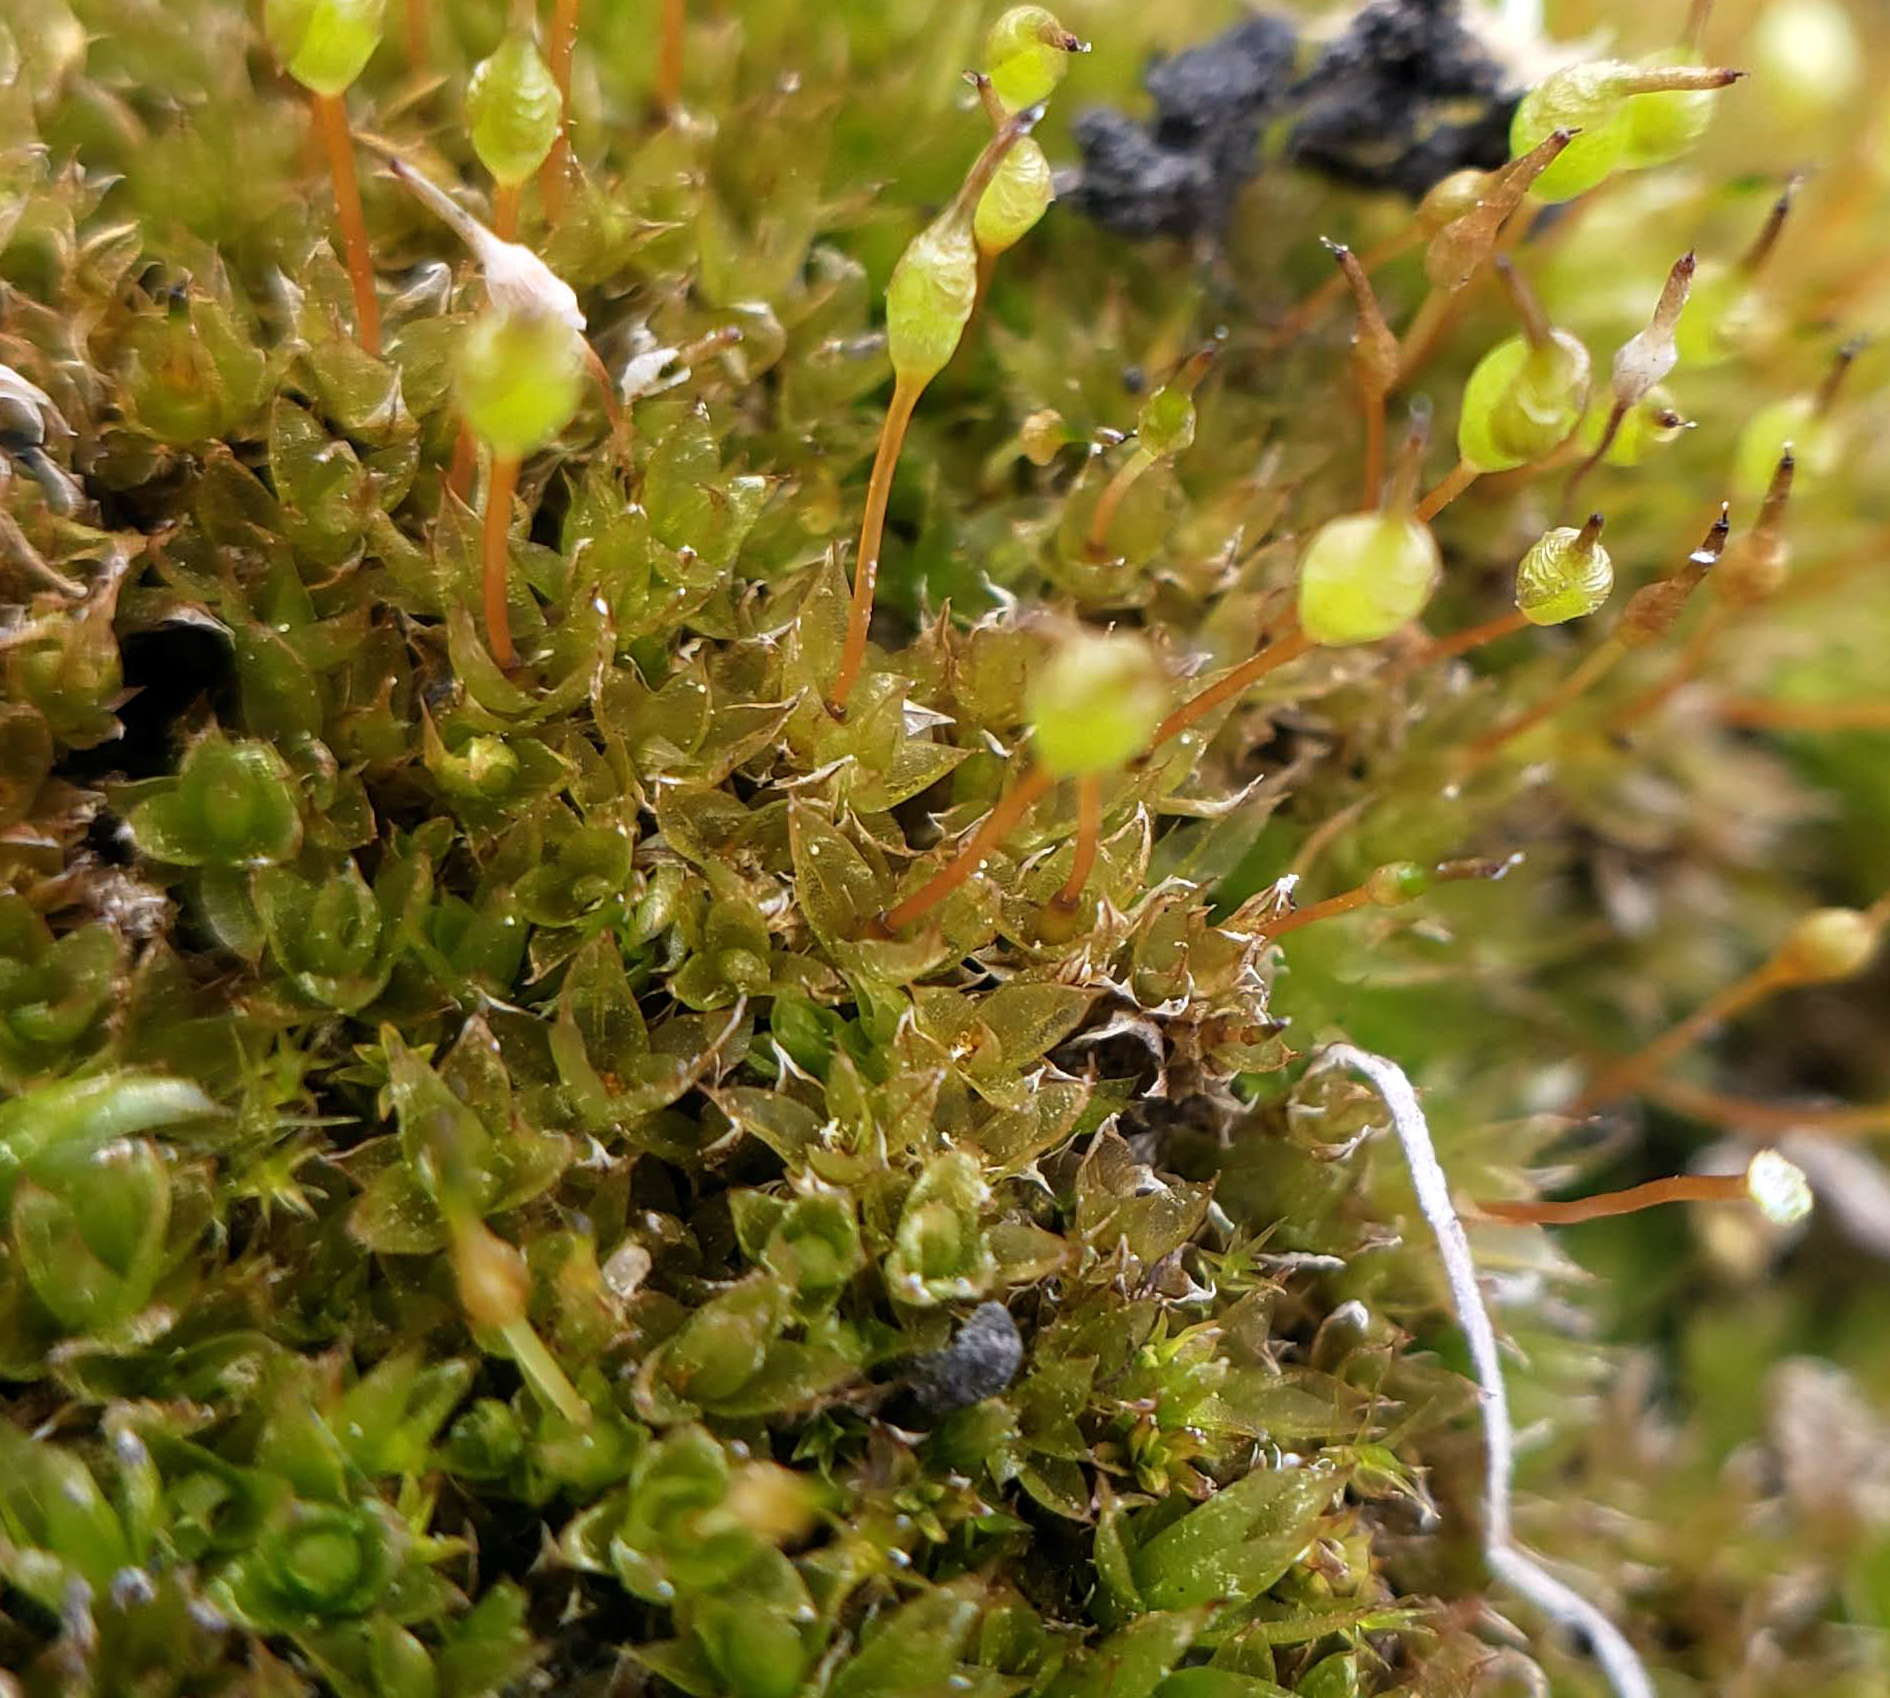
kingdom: Plantae
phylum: Bryophyta
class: Bryopsida
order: Funariales
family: Funariaceae
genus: Physcomitrium
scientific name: Physcomitrium pyriforme
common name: Common bladder-moss
